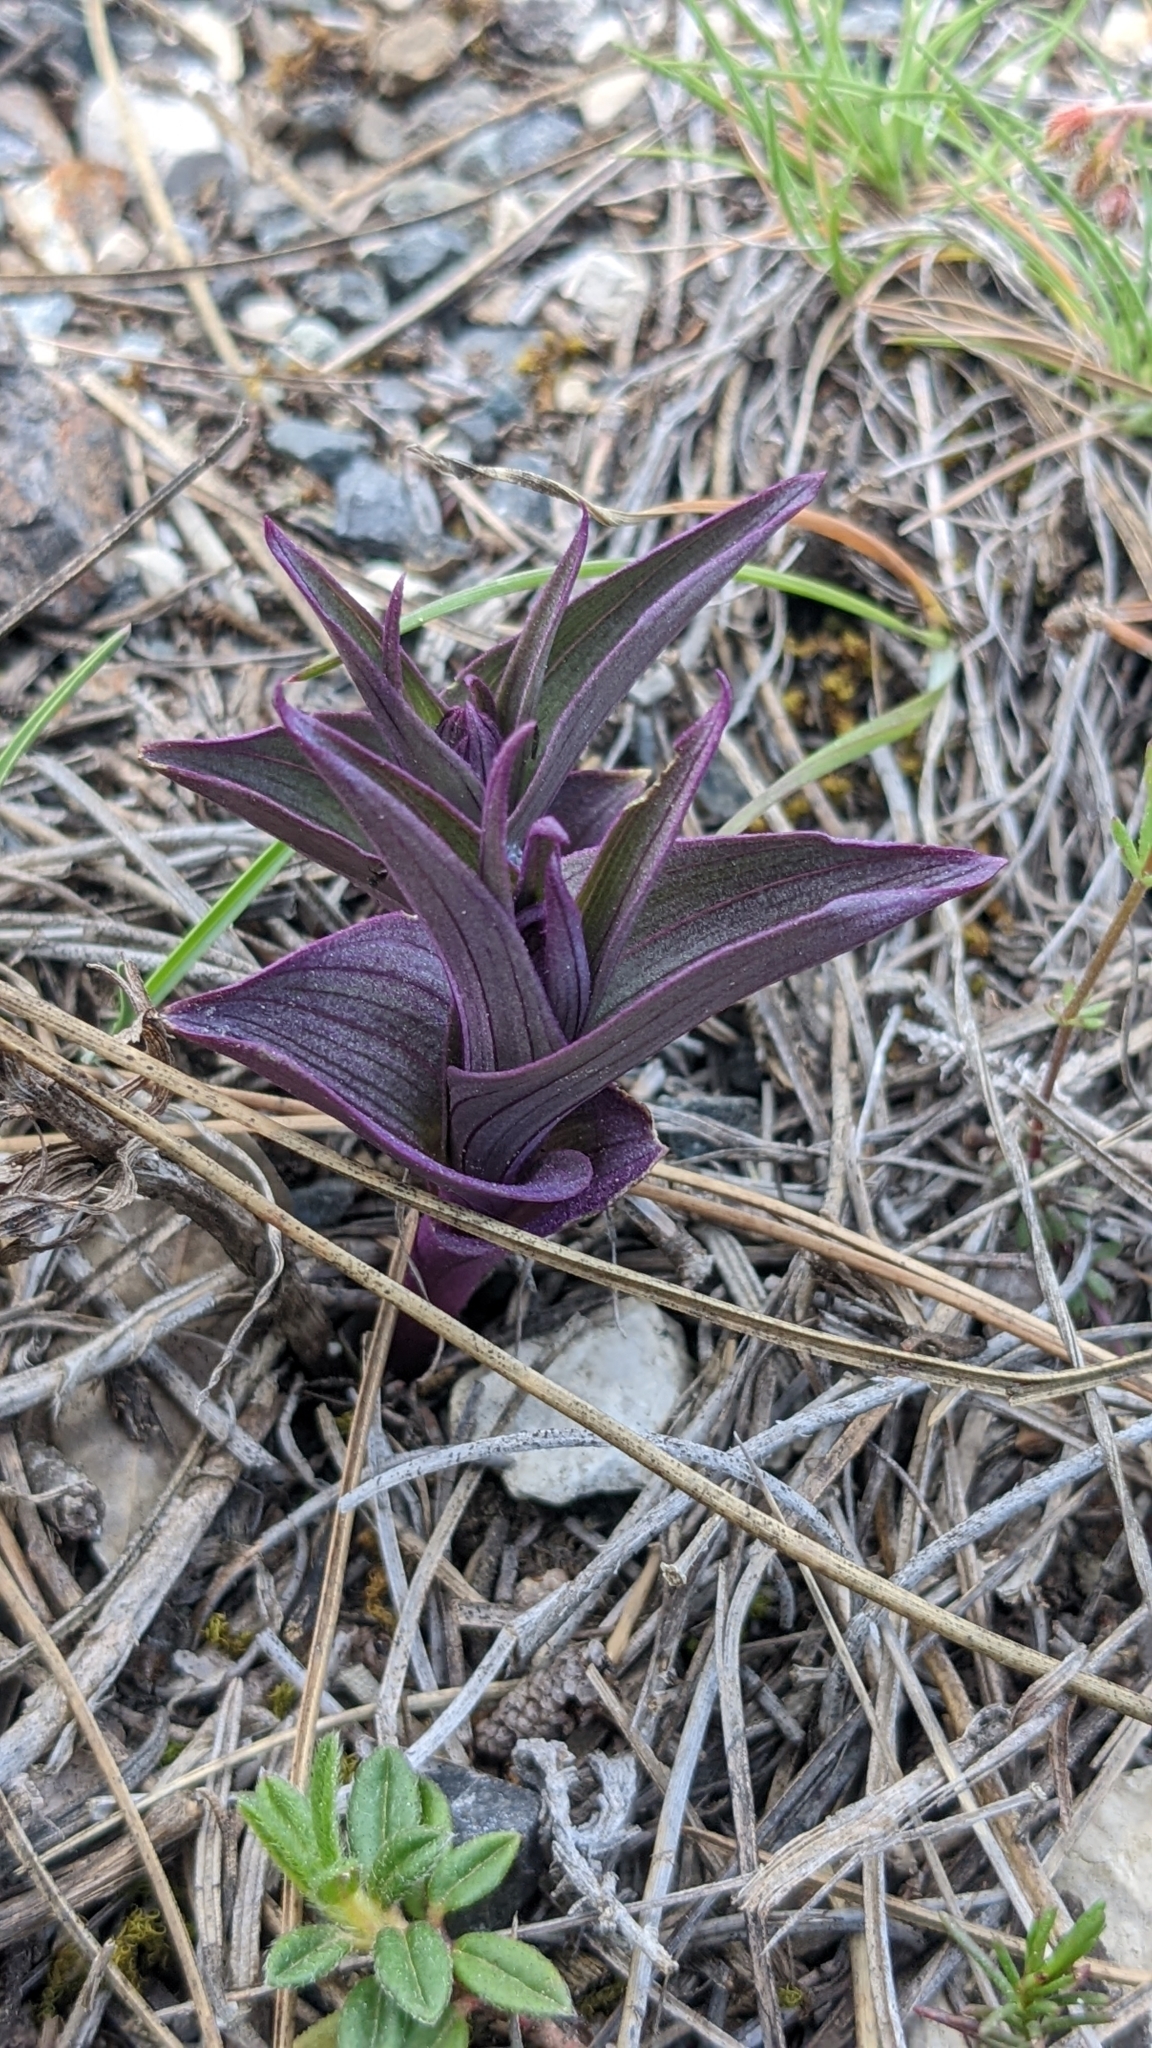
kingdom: Plantae
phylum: Tracheophyta
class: Liliopsida
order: Commelinales
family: Commelinaceae
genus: Tradescantia
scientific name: Tradescantia pallida
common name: Purpleheart
